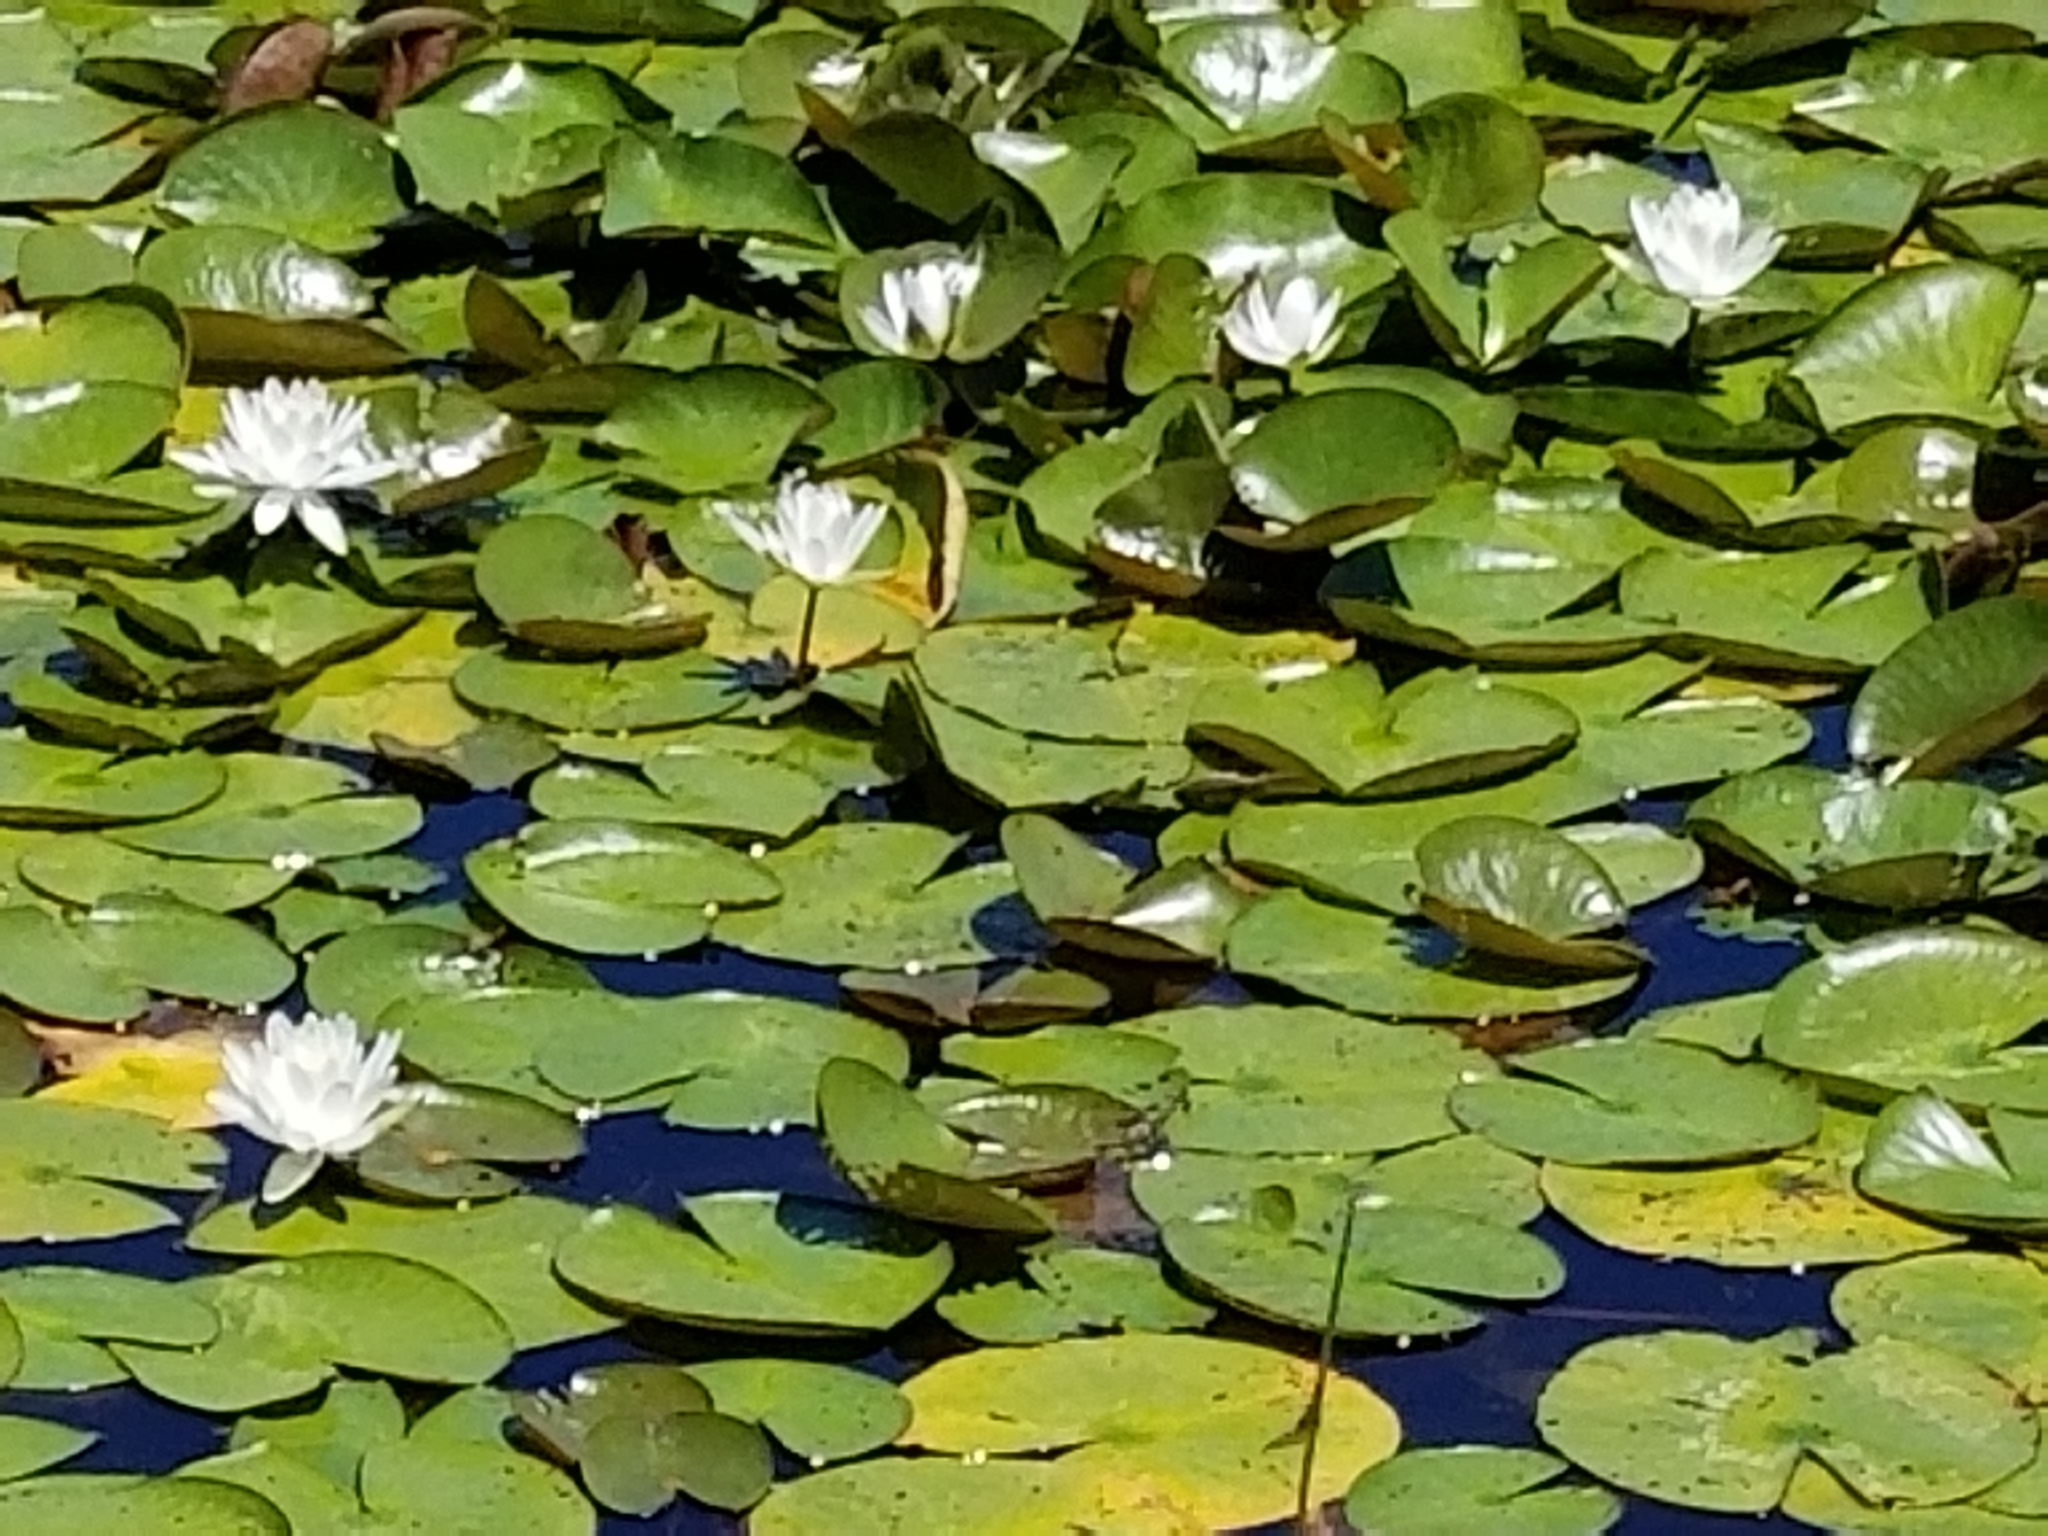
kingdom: Plantae
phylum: Tracheophyta
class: Magnoliopsida
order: Nymphaeales
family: Nymphaeaceae
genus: Nymphaea
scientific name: Nymphaea odorata
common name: Fragrant water-lily
